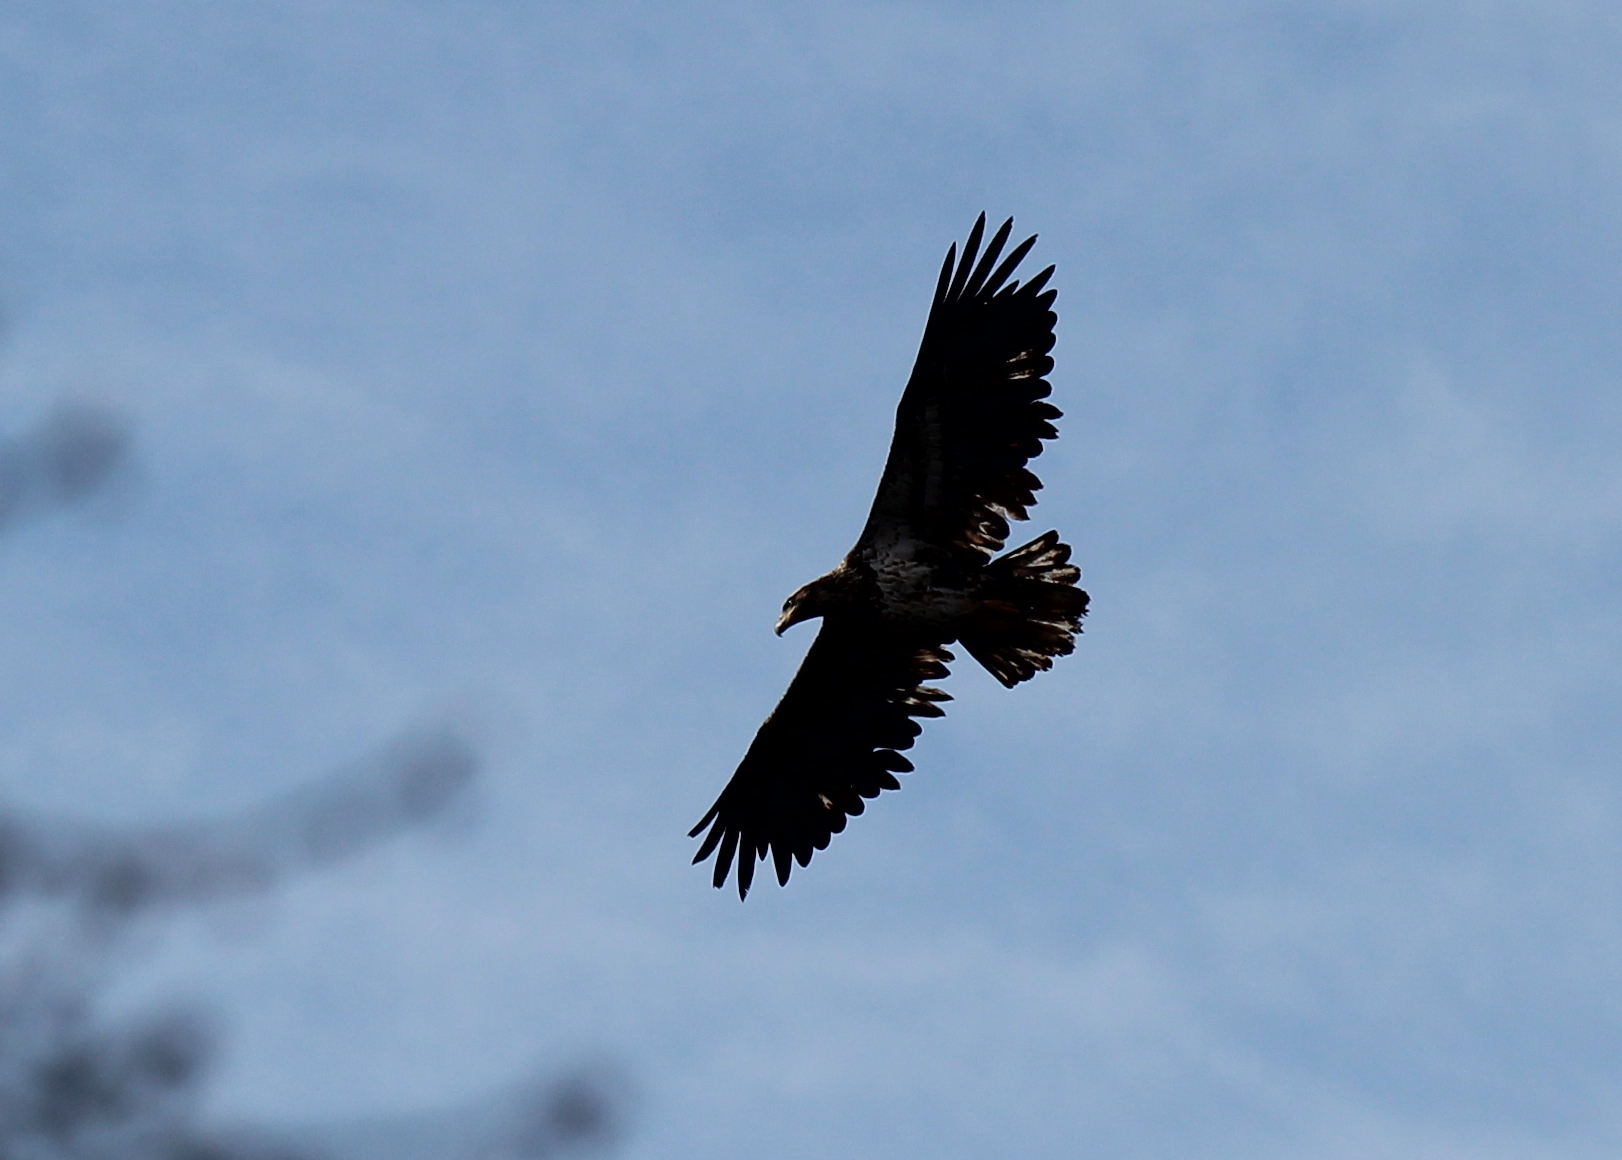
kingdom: Animalia
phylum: Chordata
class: Aves
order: Accipitriformes
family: Accipitridae
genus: Haliaeetus
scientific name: Haliaeetus leucocephalus
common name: Bald eagle
